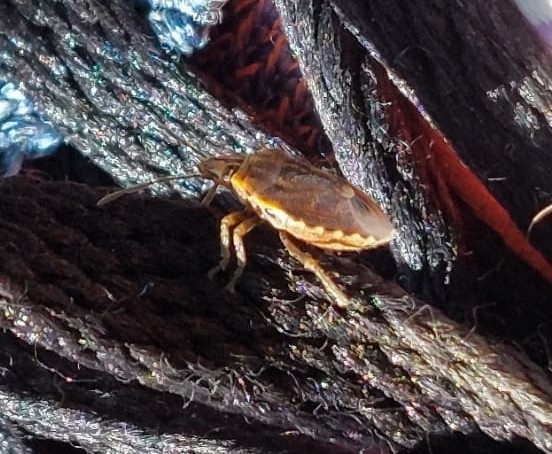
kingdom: Animalia
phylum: Arthropoda
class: Insecta
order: Hemiptera
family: Pentatomidae
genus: Holcogaster
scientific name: Holcogaster fibulata
